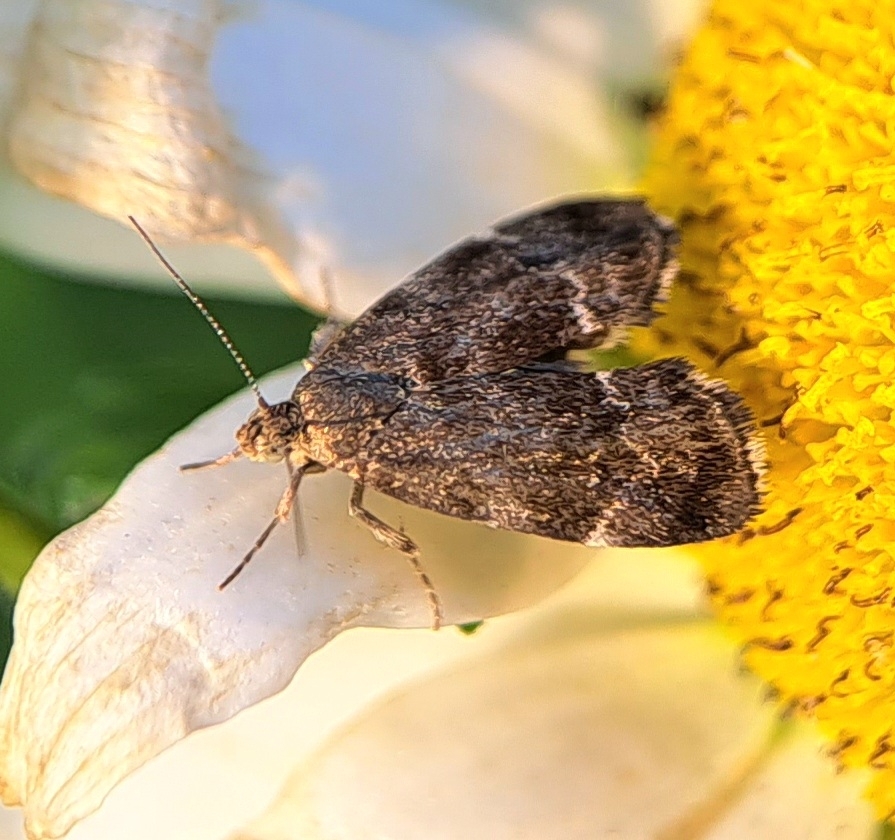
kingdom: Animalia
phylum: Arthropoda
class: Insecta
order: Lepidoptera
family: Choreutidae
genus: Anthophila
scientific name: Anthophila fabriciana
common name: Nettle-tap
